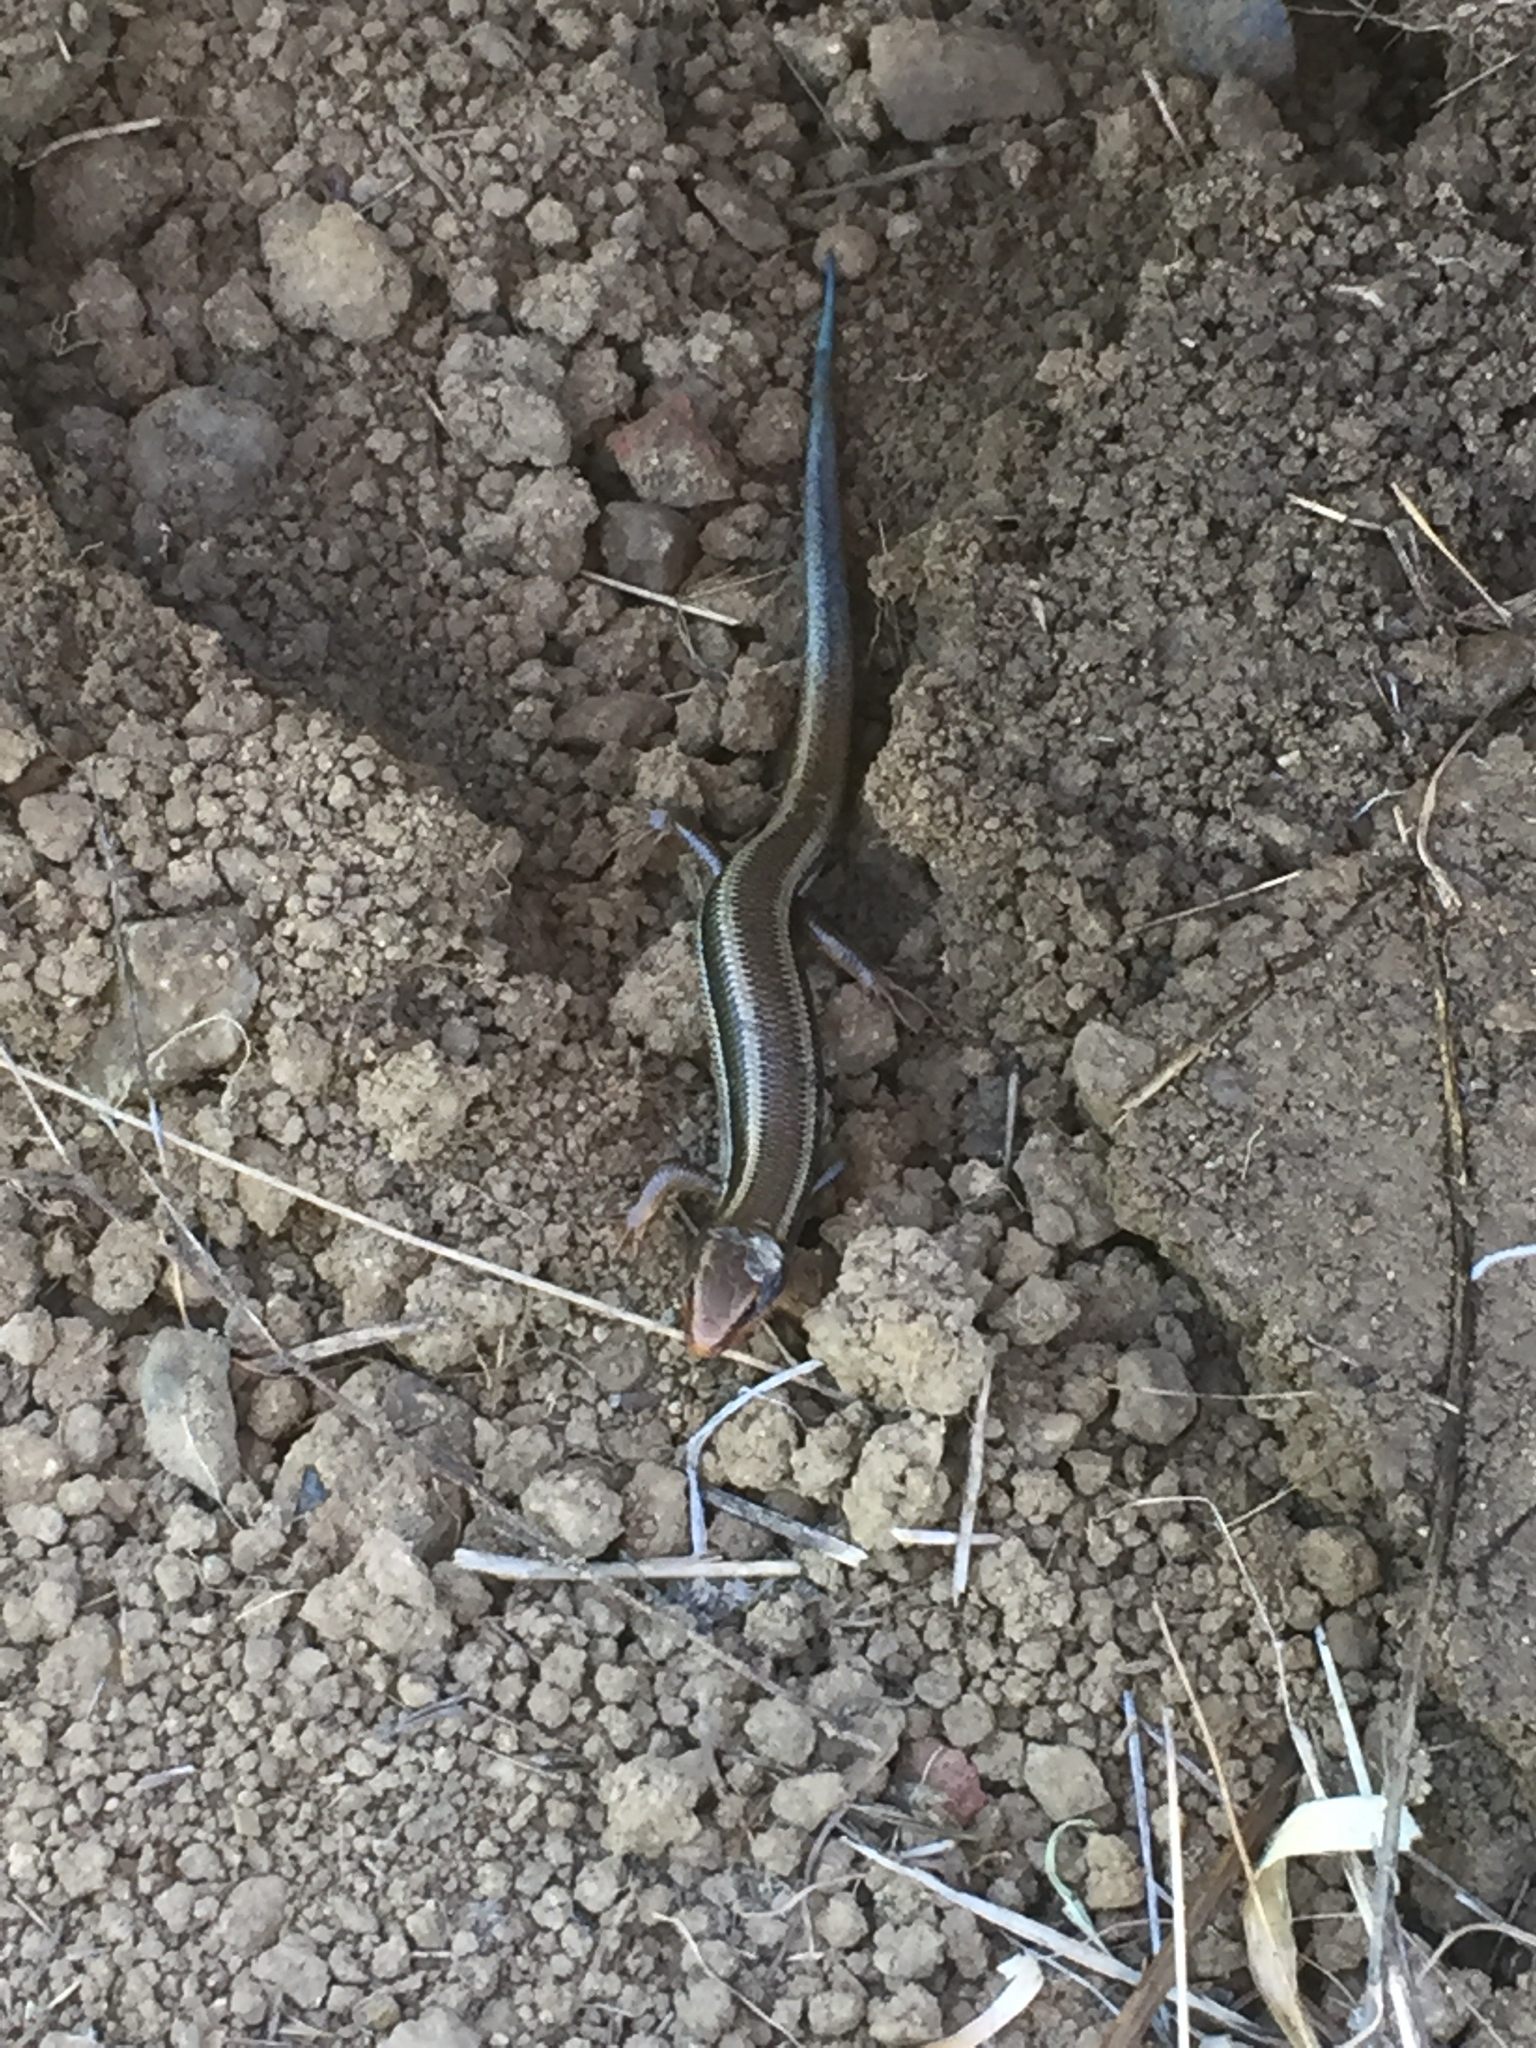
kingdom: Animalia
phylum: Chordata
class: Squamata
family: Scincidae
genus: Plestiodon
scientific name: Plestiodon skiltonianus
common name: Coronado island skink [interparietalis]
